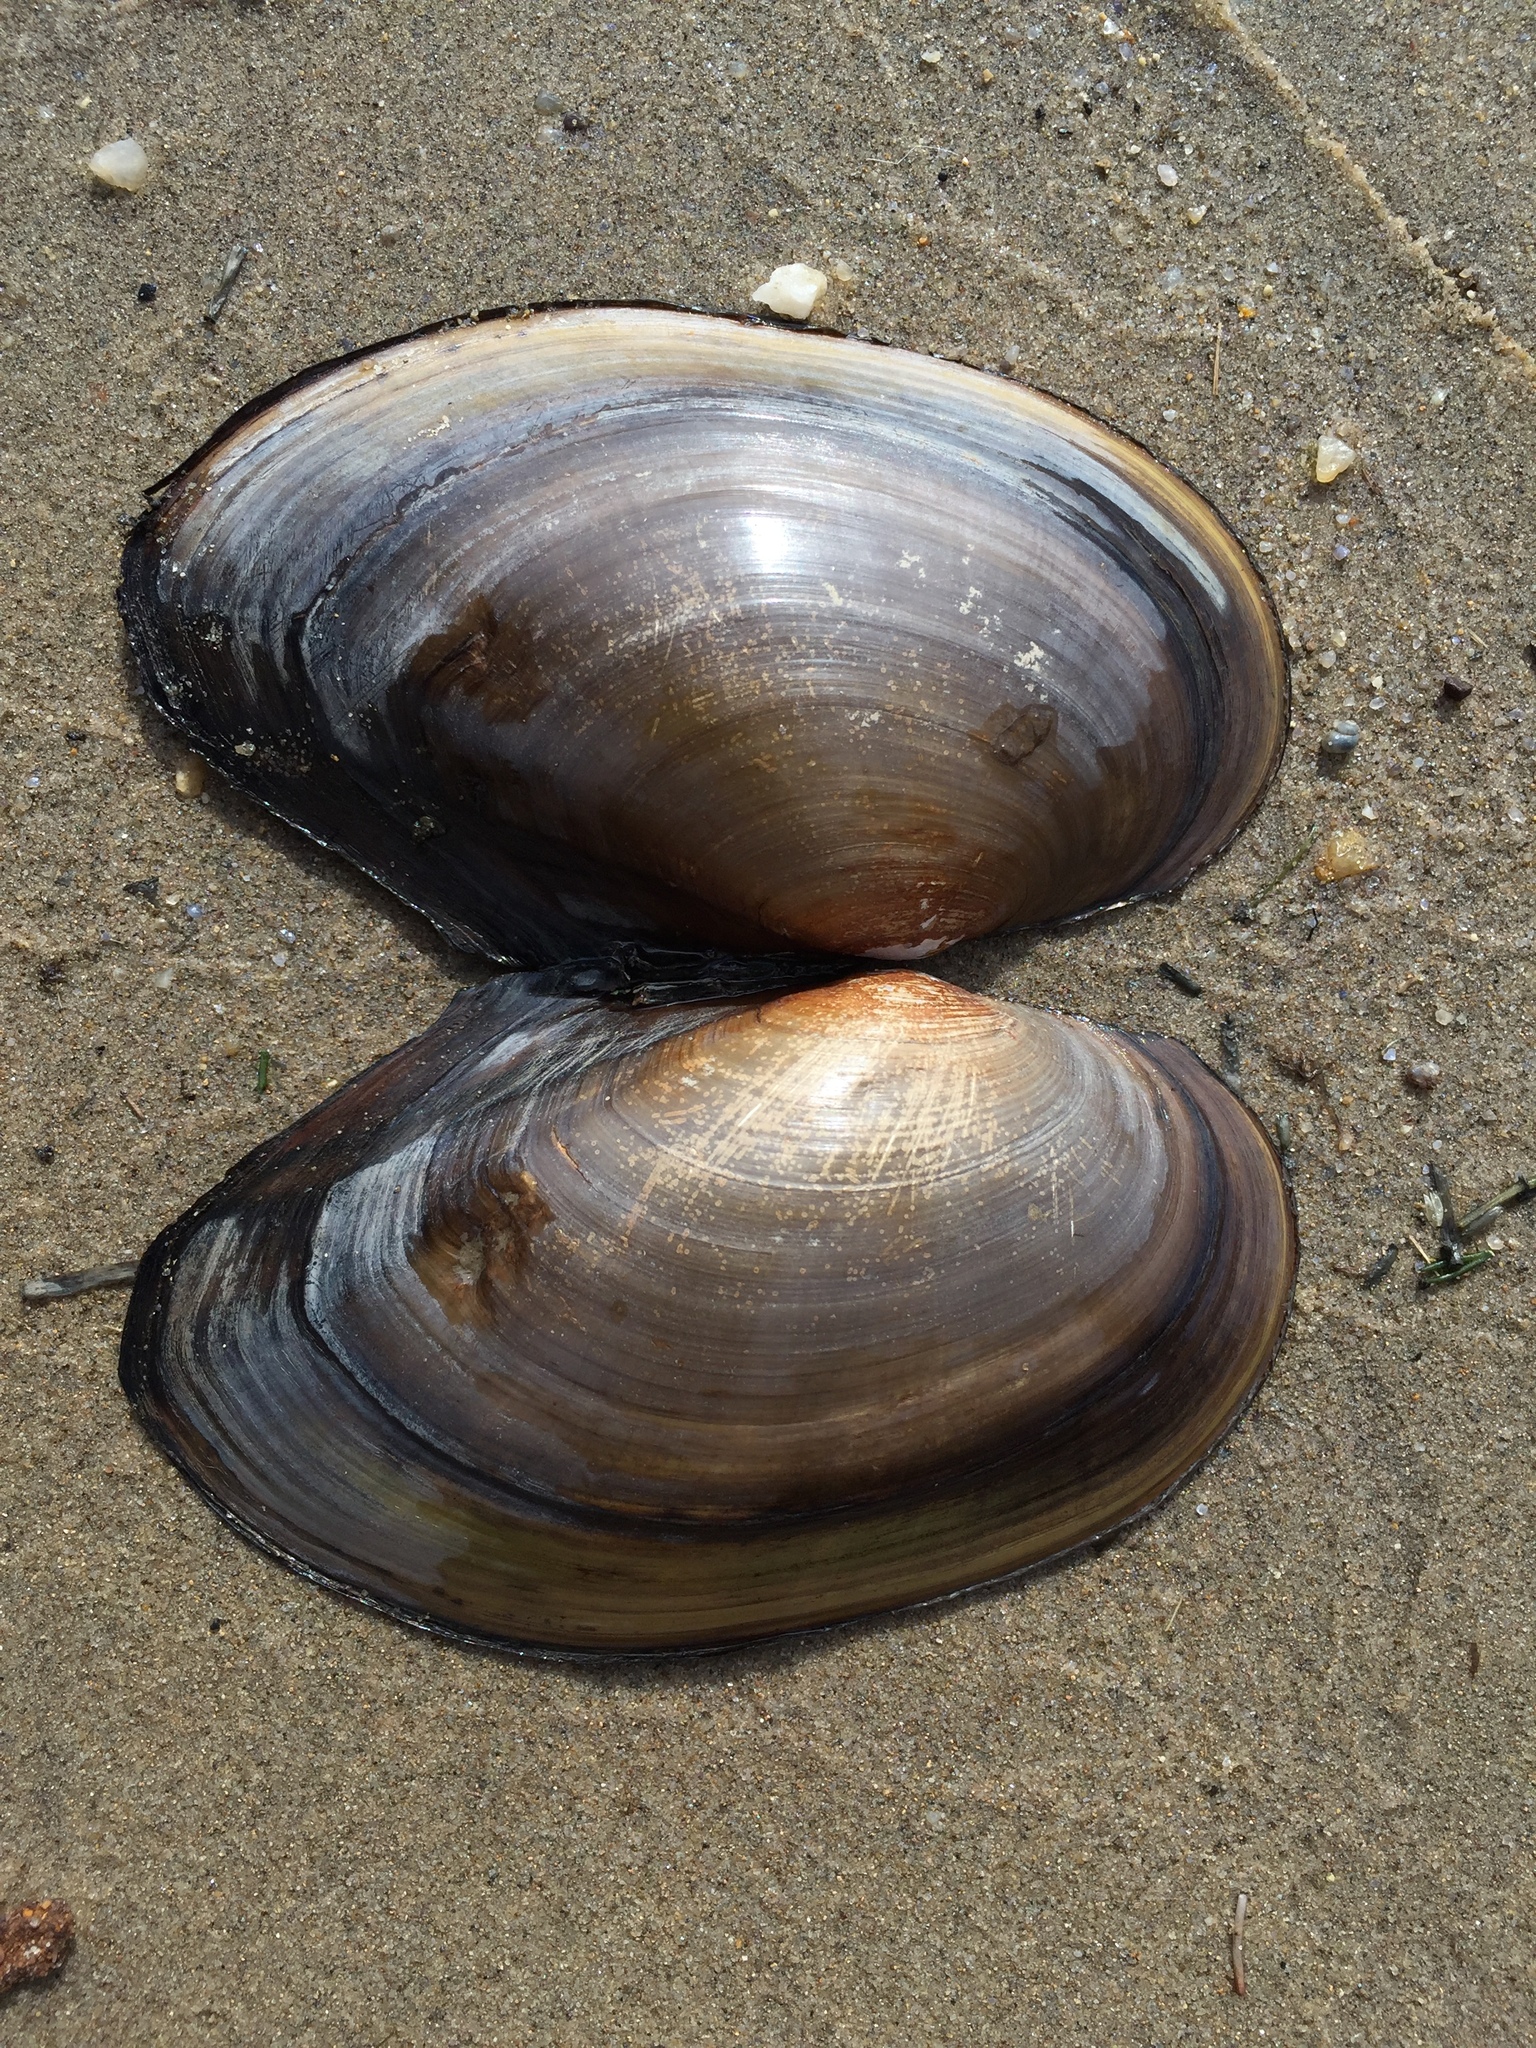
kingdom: Animalia
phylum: Mollusca
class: Bivalvia
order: Unionida
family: Unionidae
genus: Pyganodon
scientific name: Pyganodon grandis
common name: Giant floater
